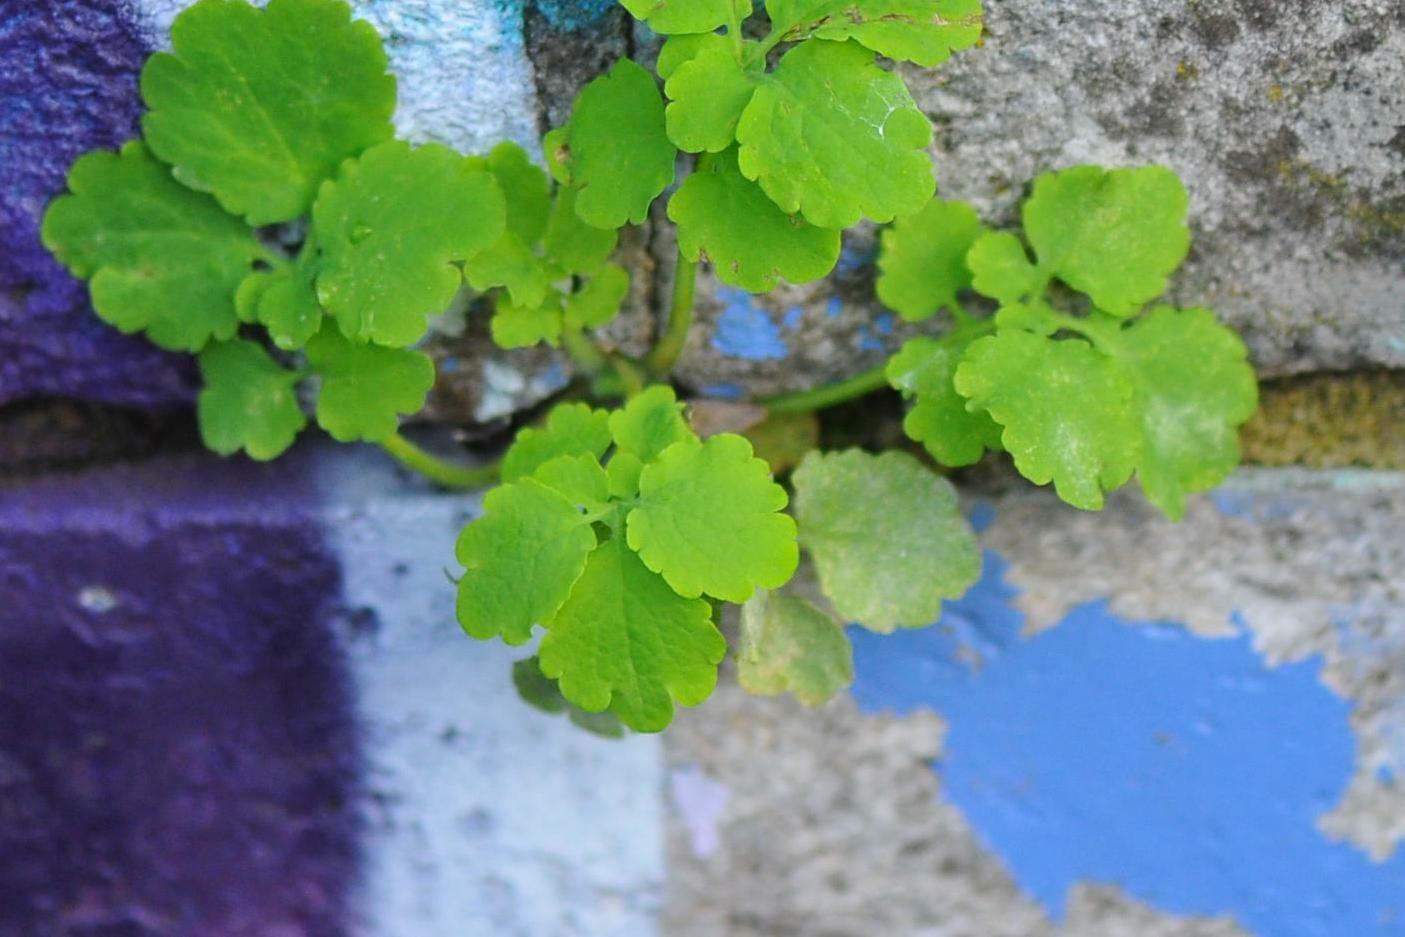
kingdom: Plantae
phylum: Tracheophyta
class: Magnoliopsida
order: Ranunculales
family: Papaveraceae
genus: Chelidonium
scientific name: Chelidonium majus
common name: Greater celandine
